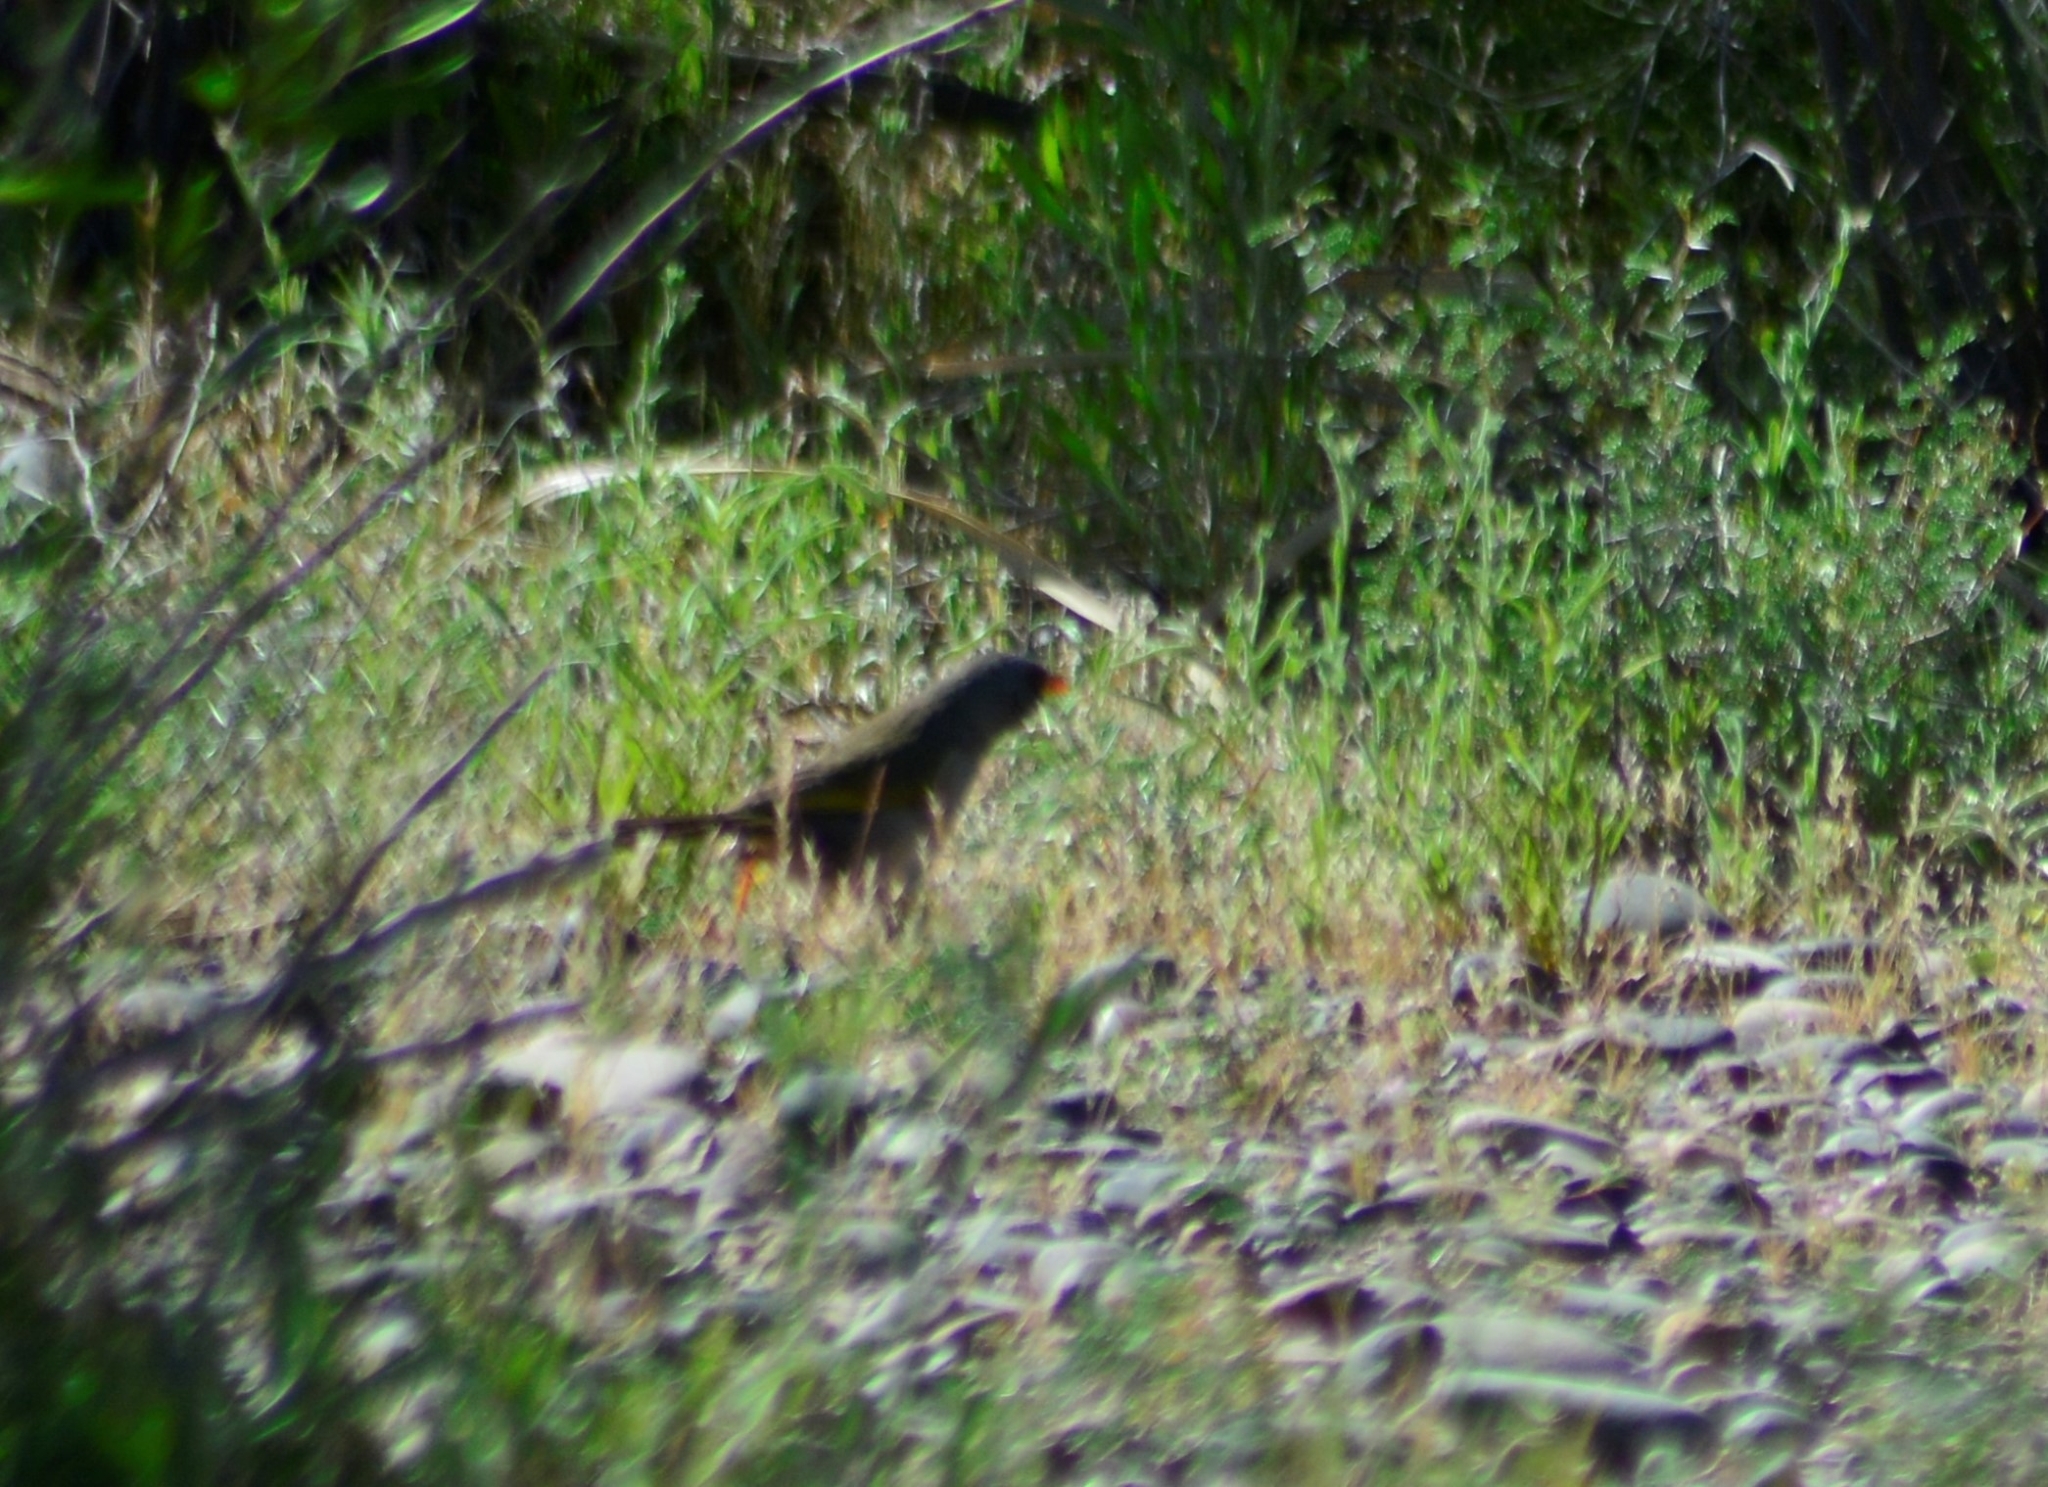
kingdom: Animalia
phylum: Chordata
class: Aves
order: Passeriformes
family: Thraupidae
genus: Embernagra
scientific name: Embernagra platensis
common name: Pampa finch
